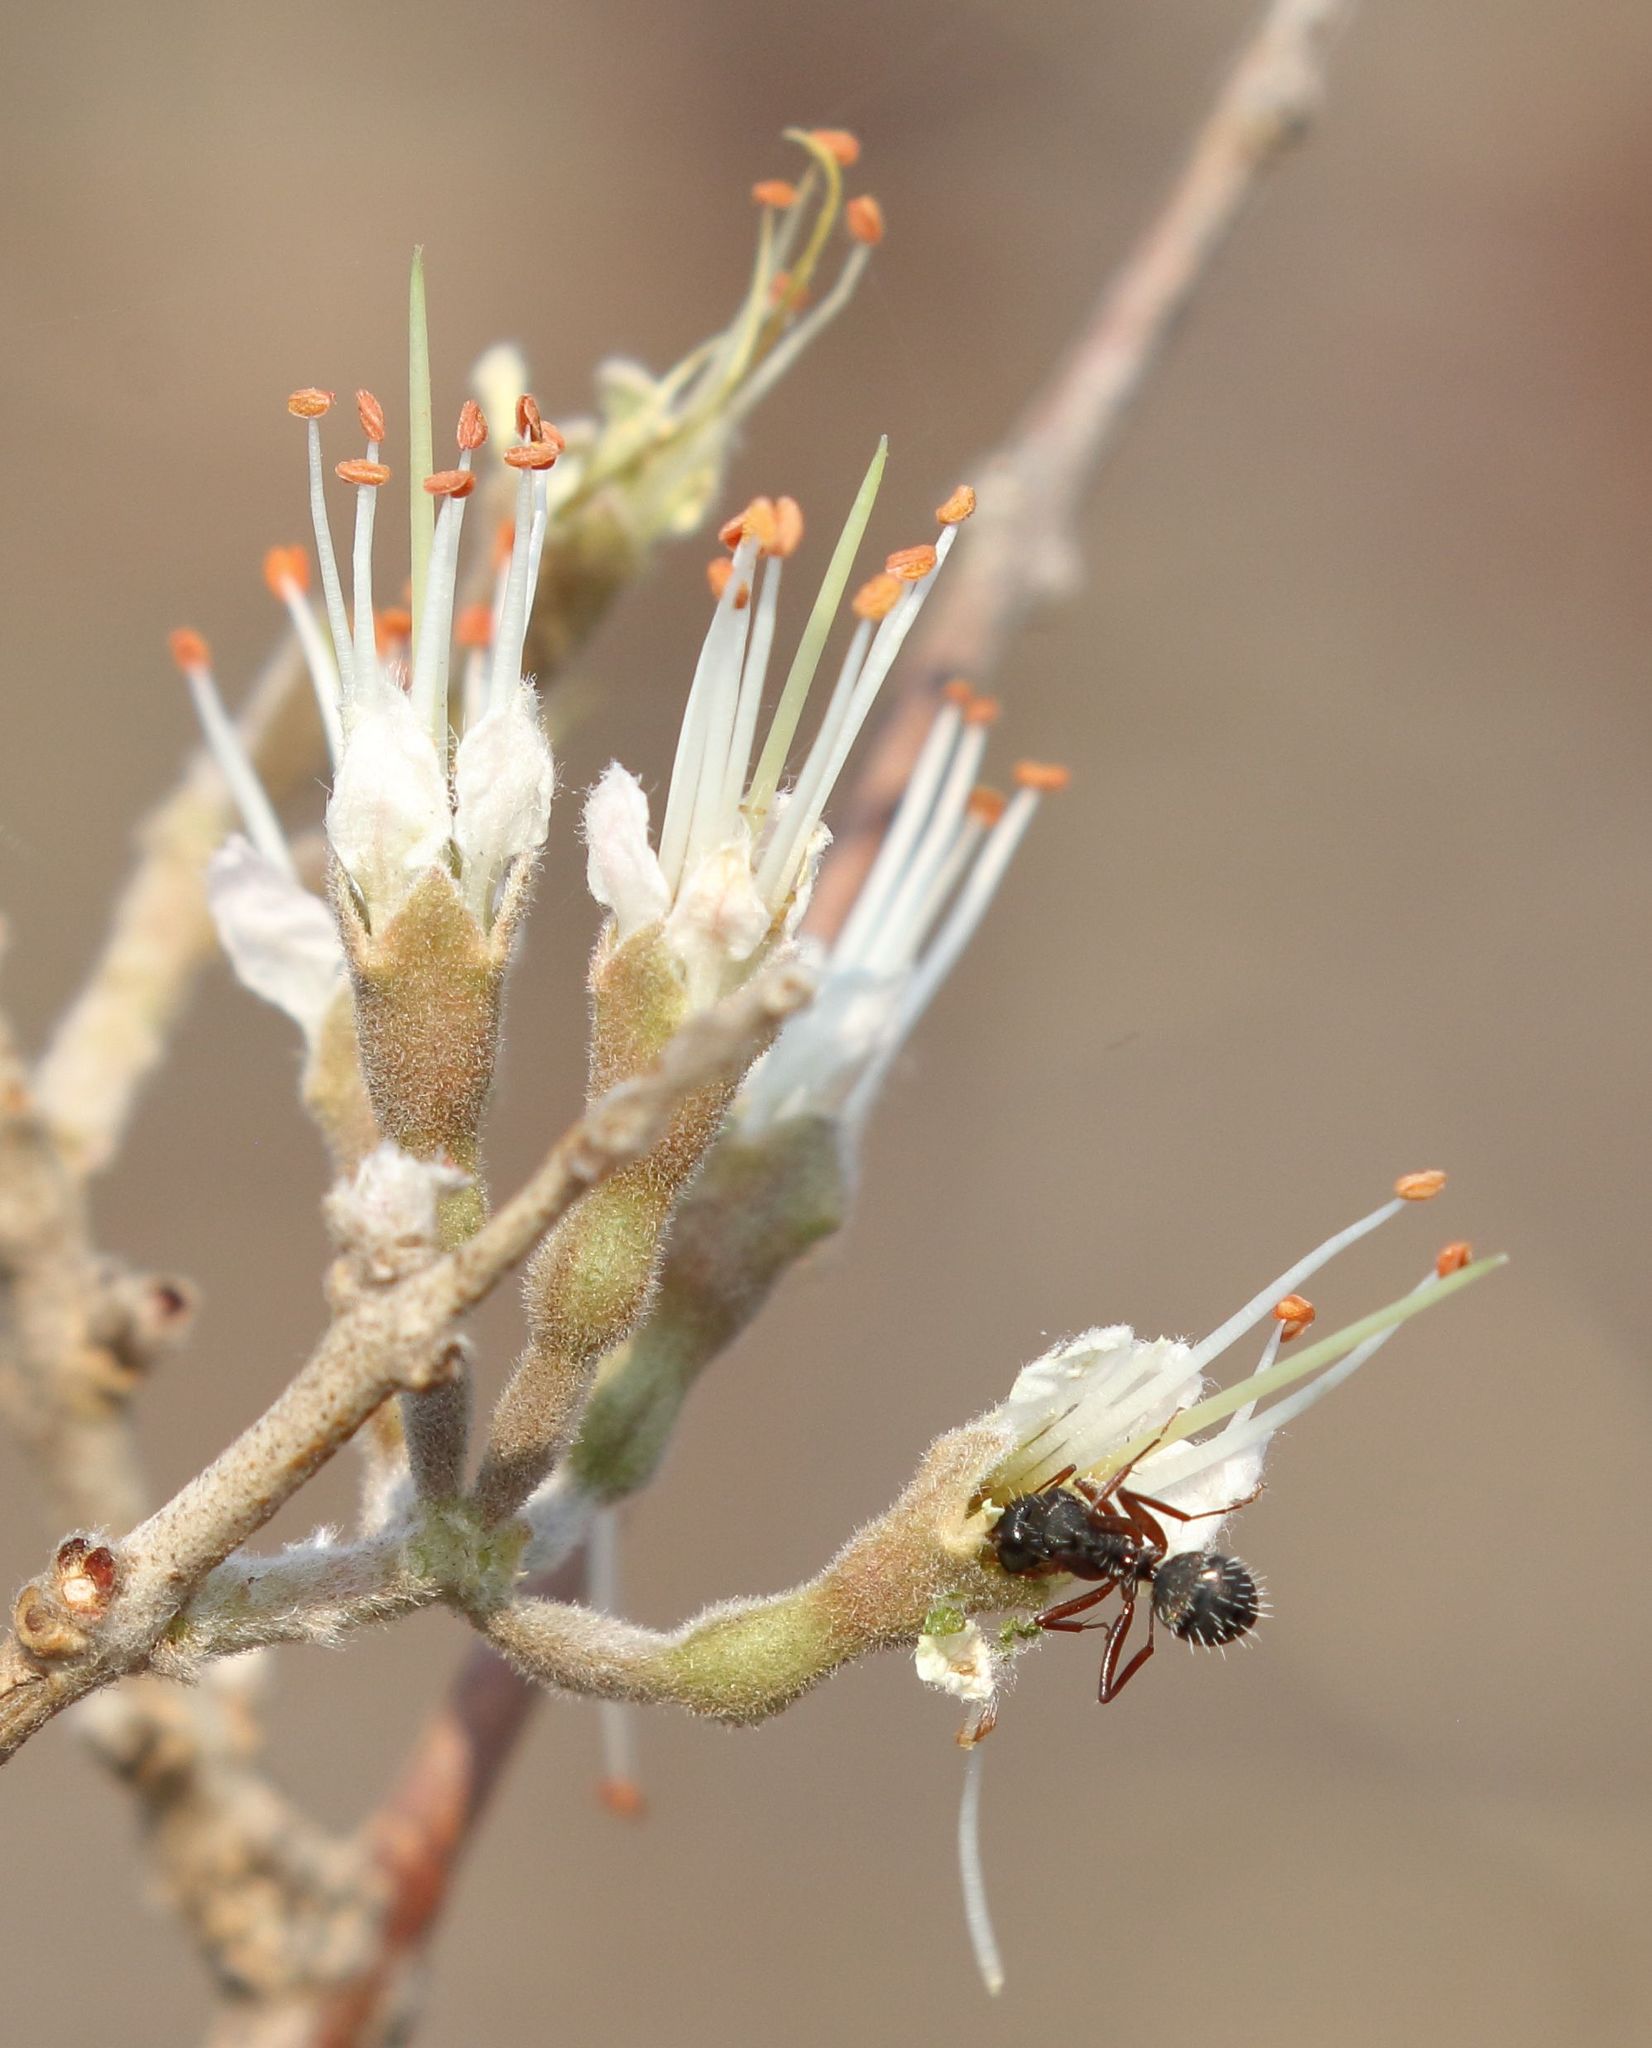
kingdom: Animalia
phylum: Arthropoda
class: Insecta
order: Hymenoptera
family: Formicidae
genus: Camponotus
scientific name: Camponotus braunsi
